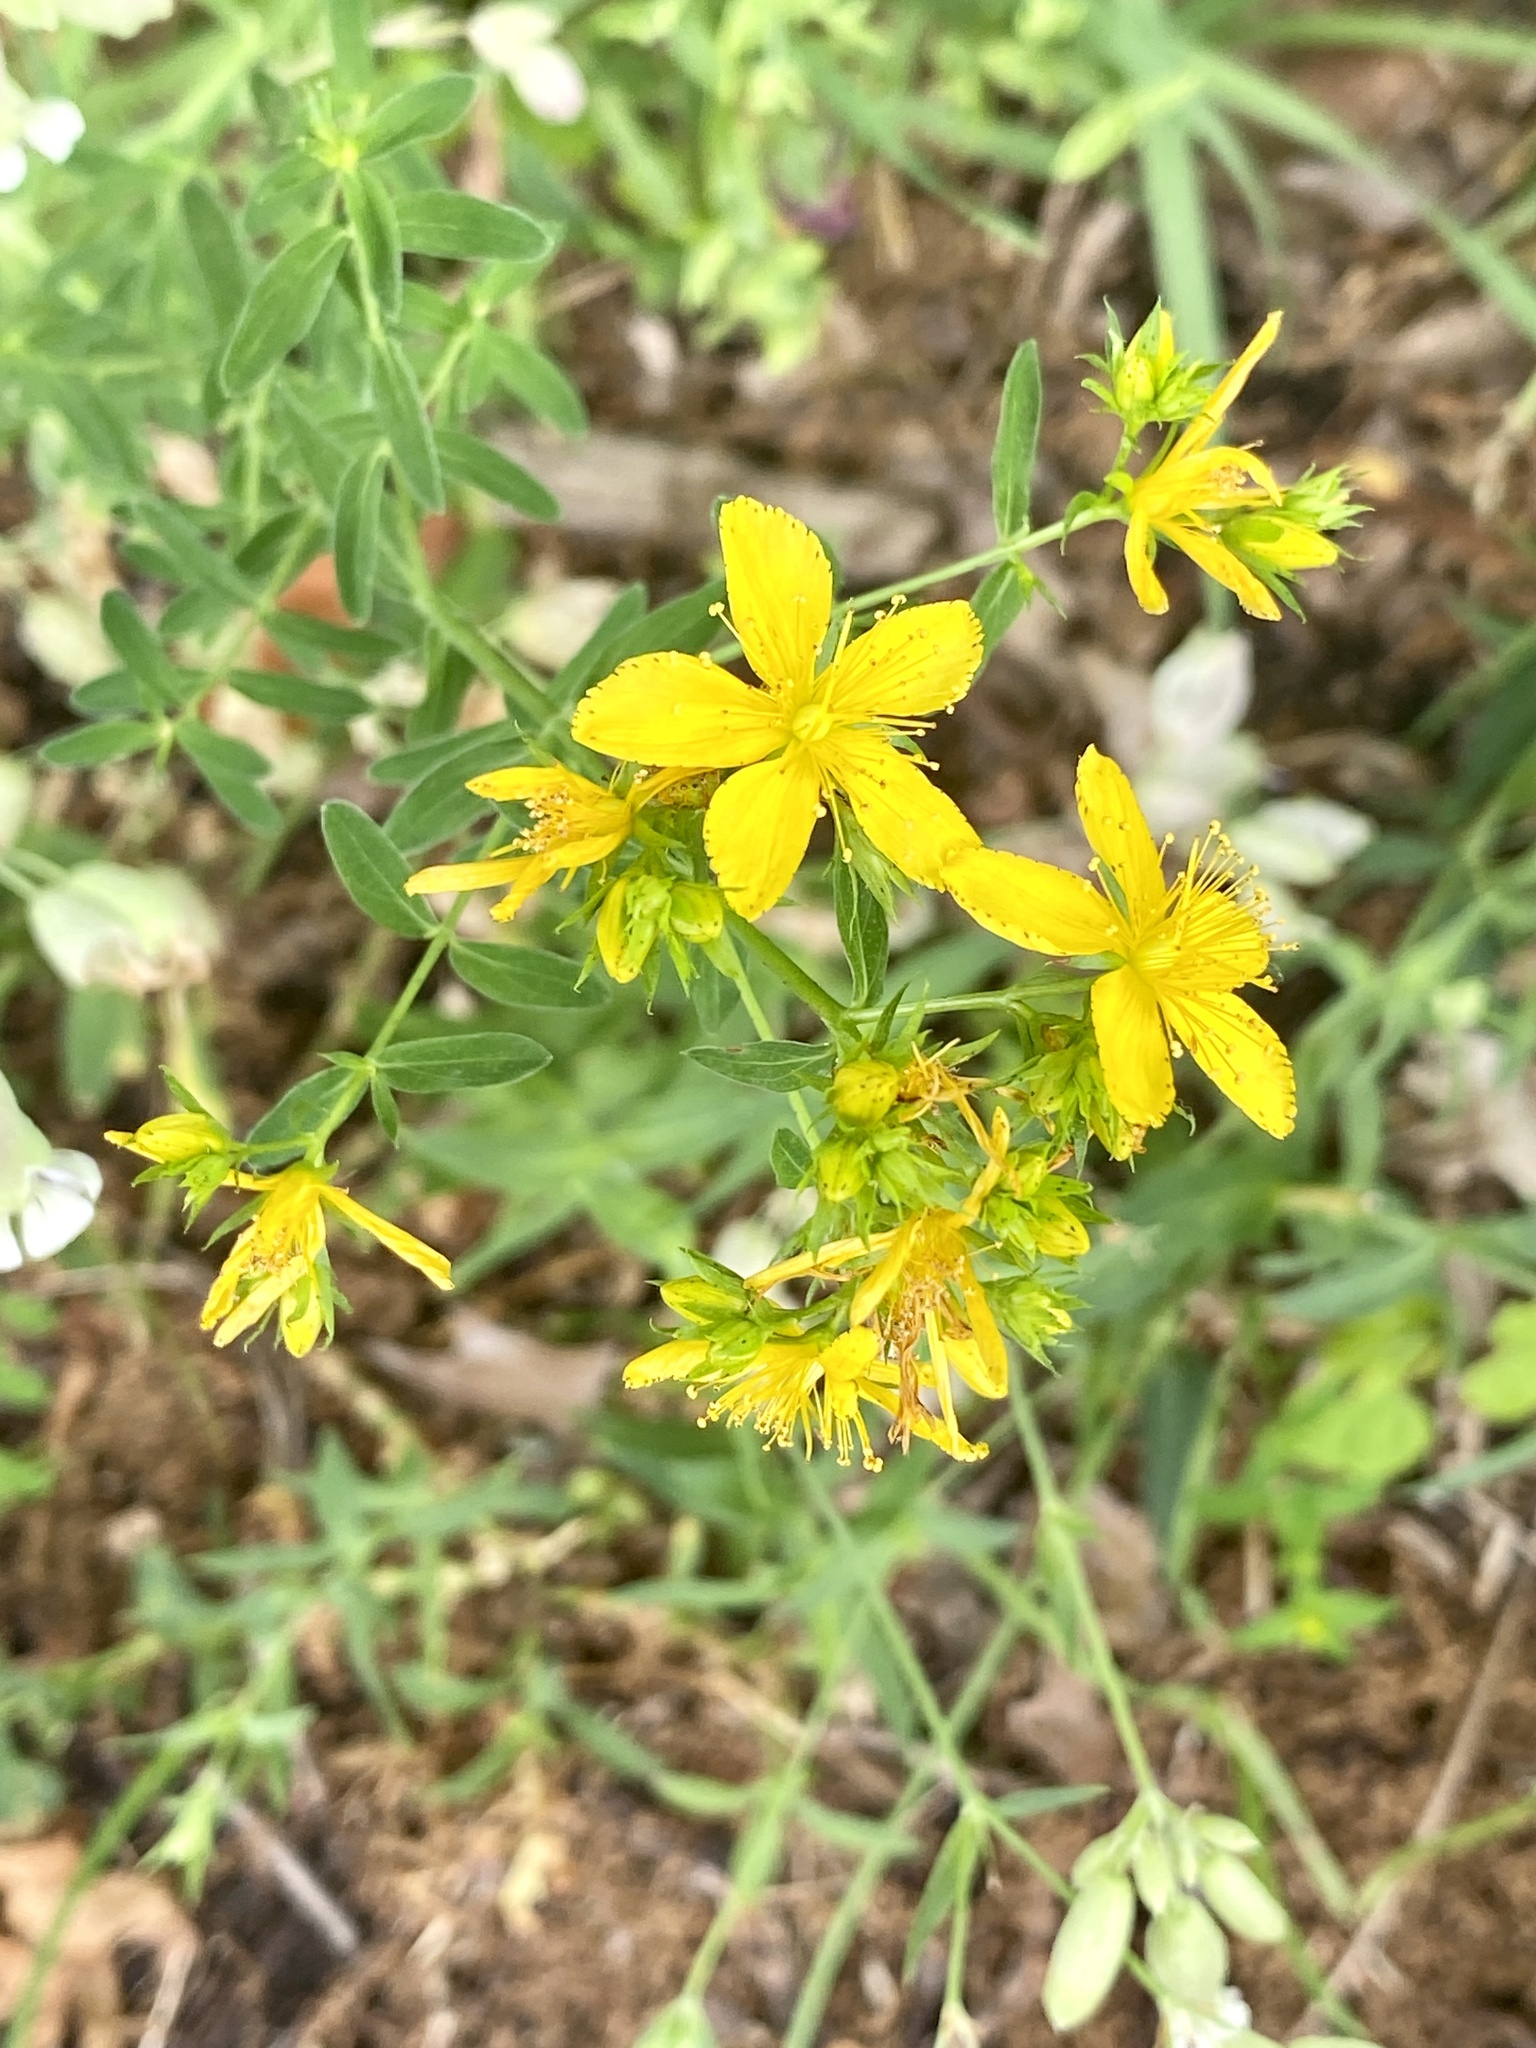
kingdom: Plantae
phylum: Tracheophyta
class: Magnoliopsida
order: Malpighiales
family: Hypericaceae
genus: Hypericum
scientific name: Hypericum perforatum
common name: Common st. johnswort
